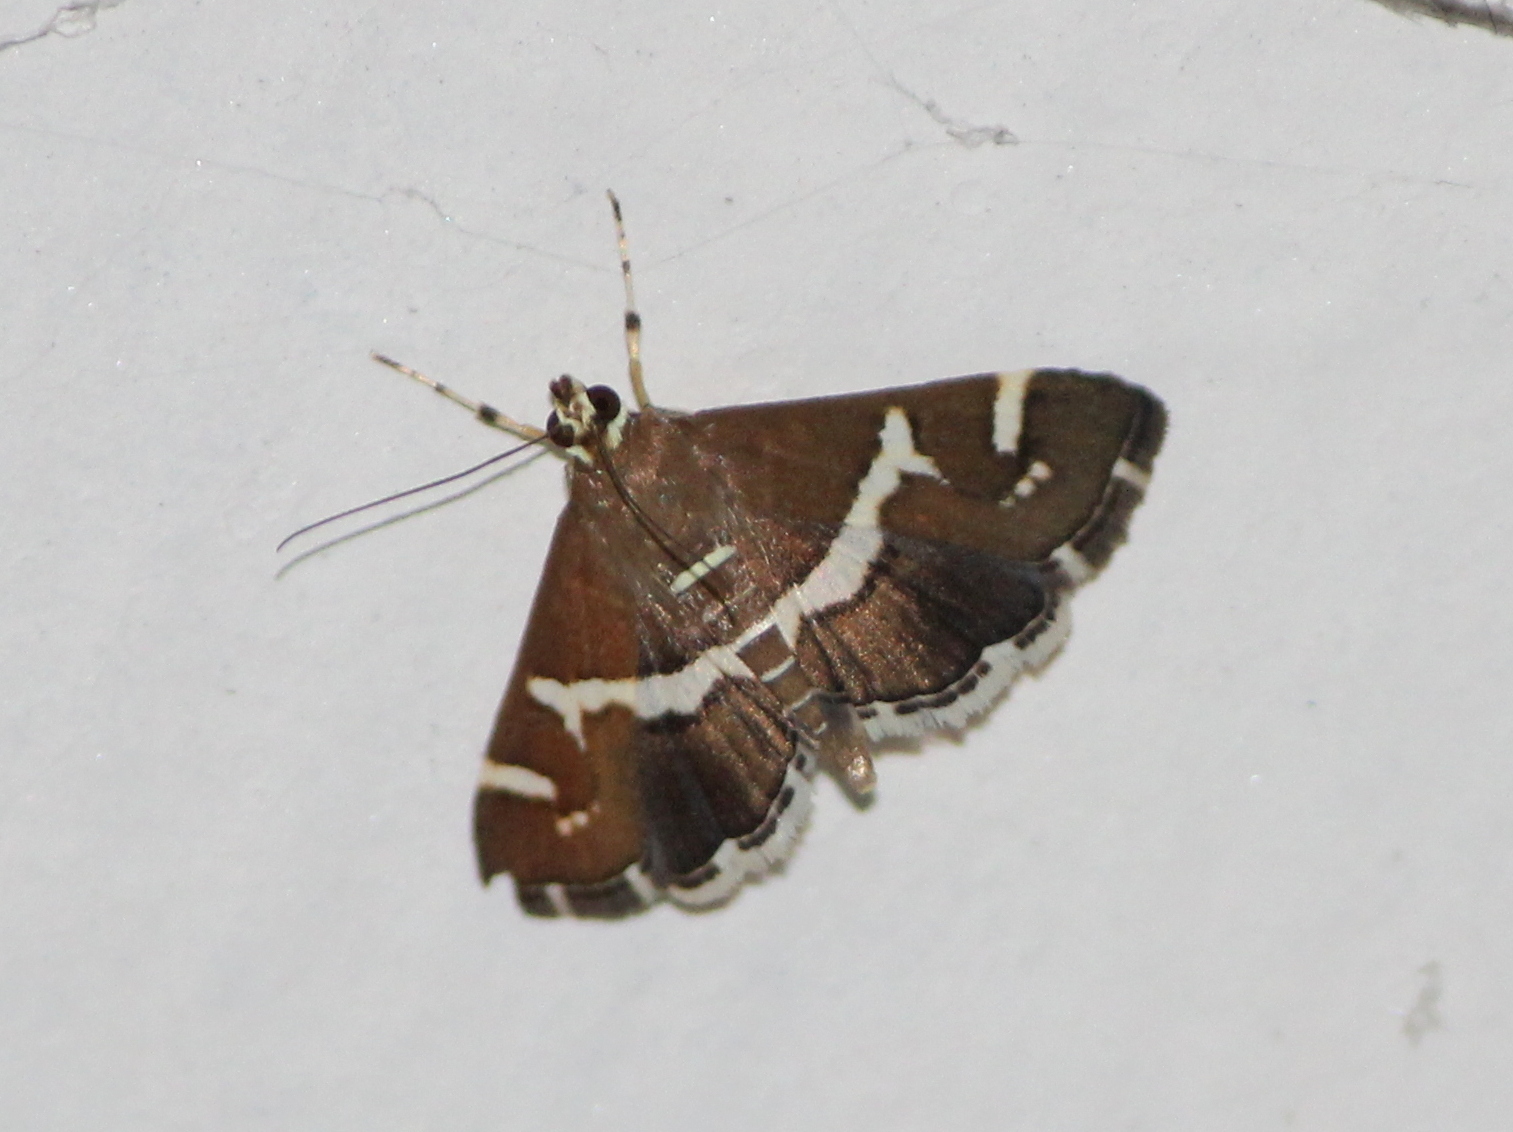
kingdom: Animalia
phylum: Arthropoda
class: Insecta
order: Lepidoptera
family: Crambidae
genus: Spoladea
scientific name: Spoladea recurvalis
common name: Beet webworm moth
